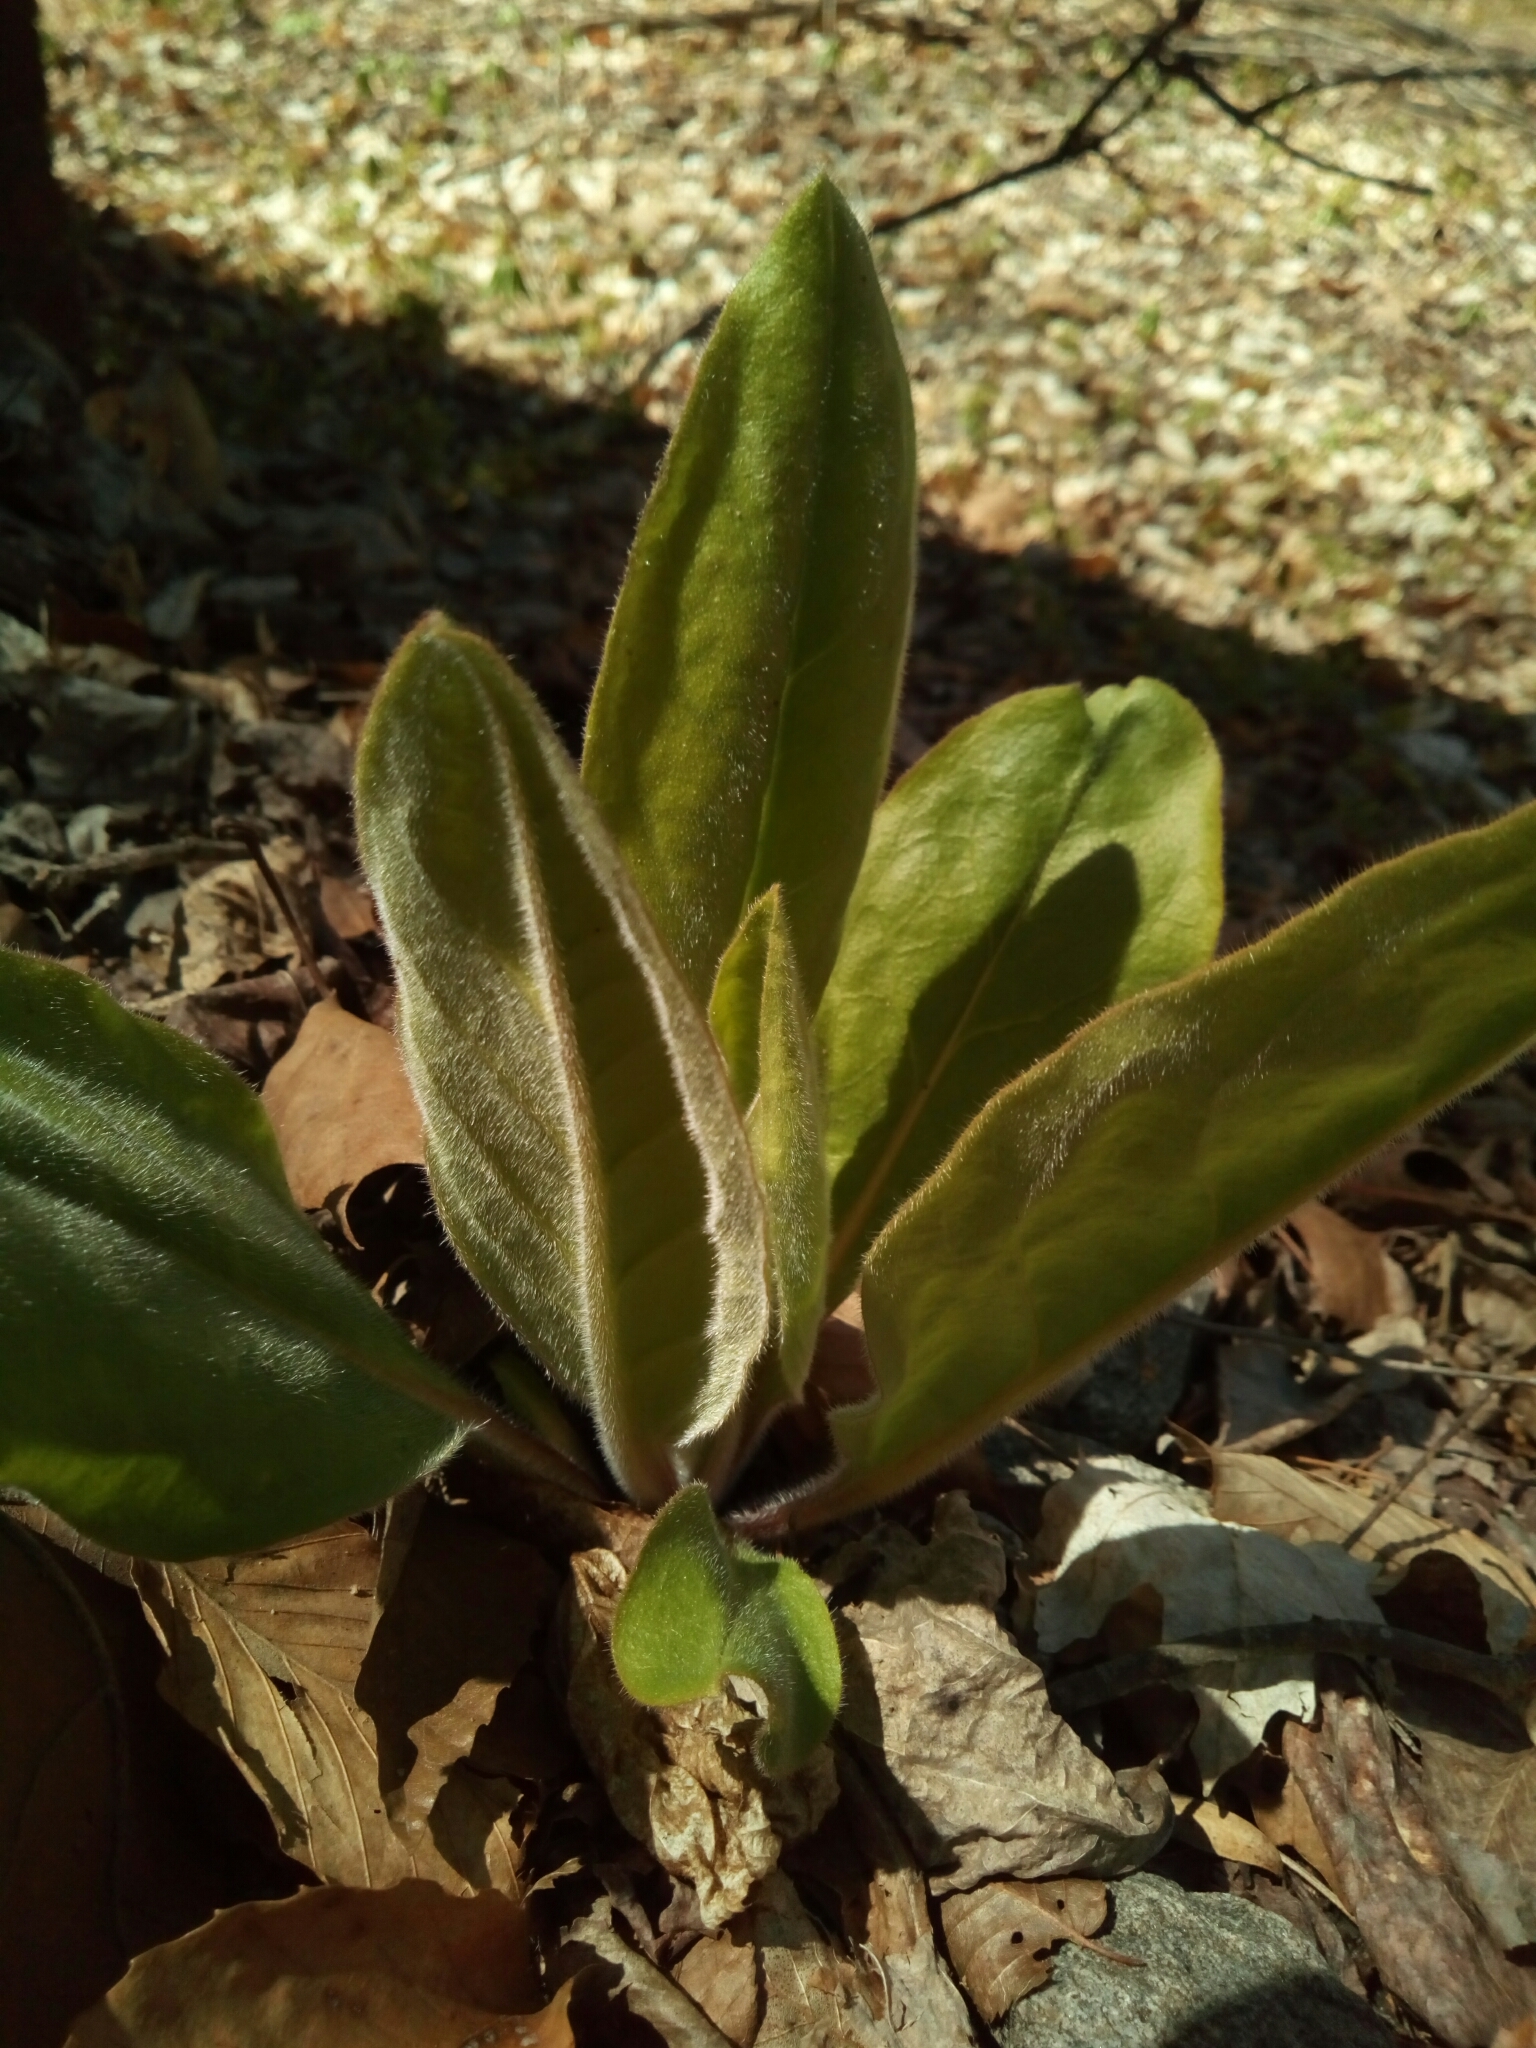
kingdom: Plantae
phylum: Tracheophyta
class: Magnoliopsida
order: Boraginales
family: Boraginaceae
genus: Andersonglossum
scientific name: Andersonglossum virginianum
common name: Wild comfrey
